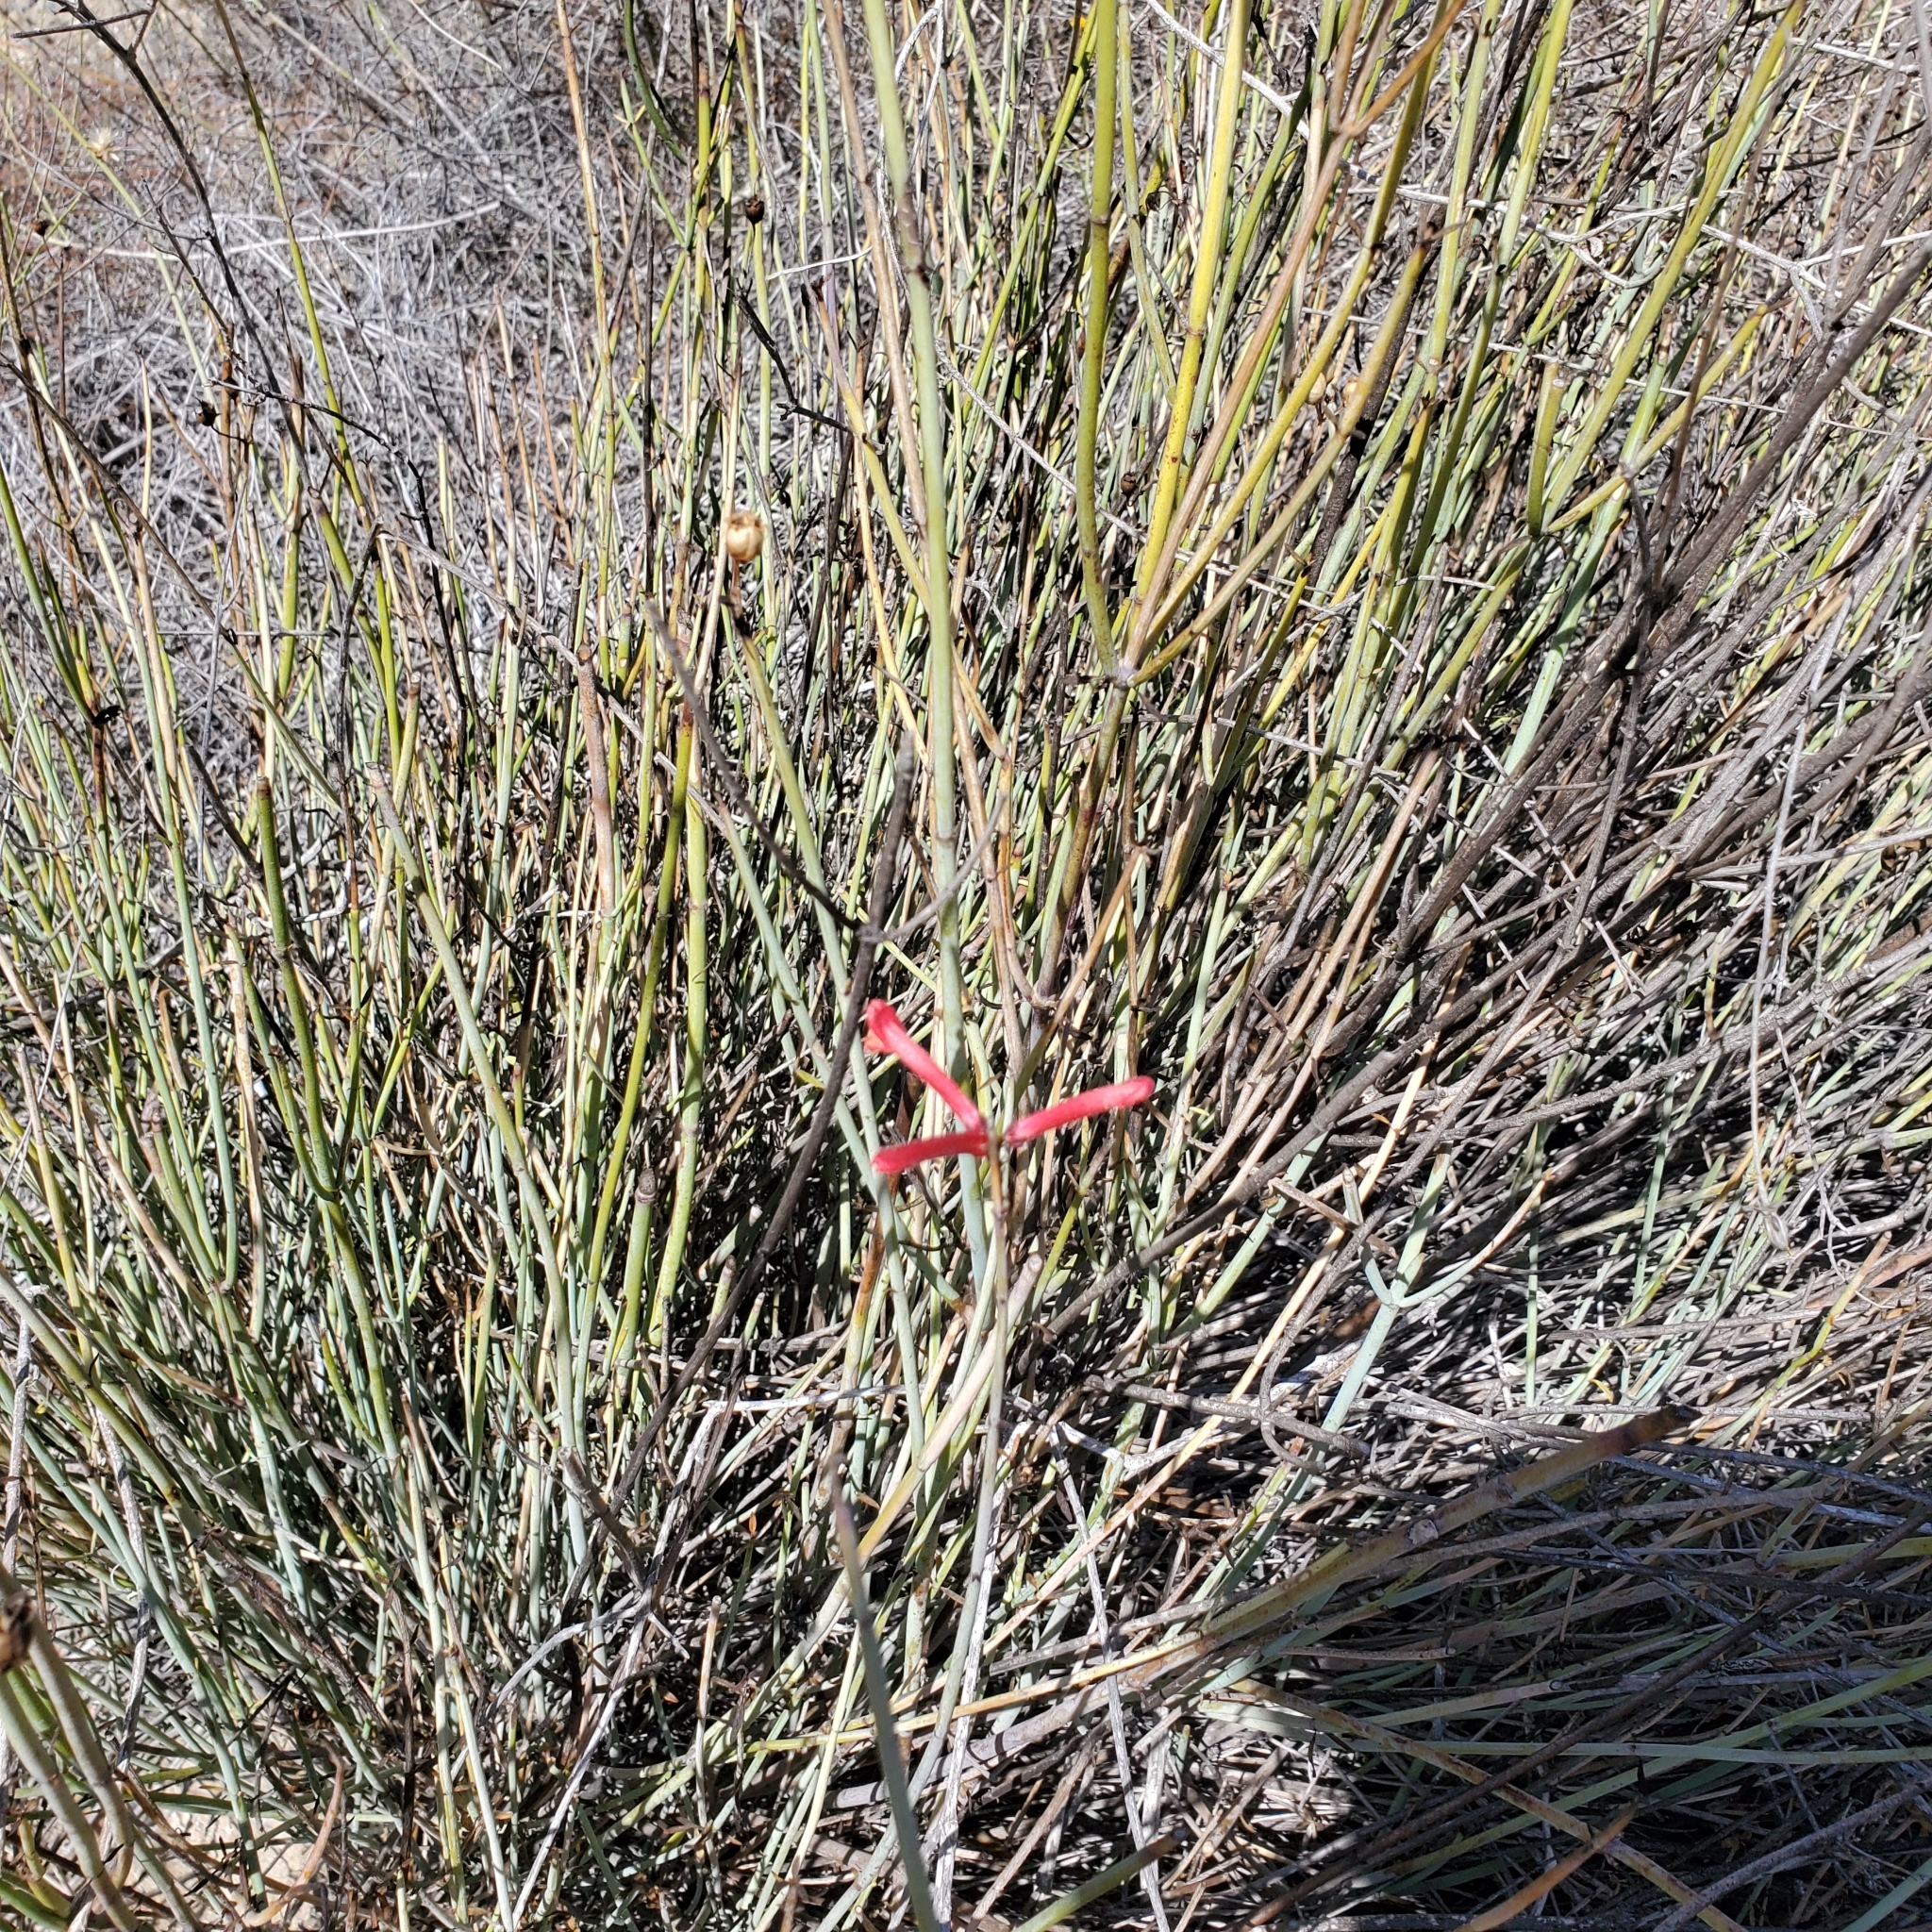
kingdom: Plantae
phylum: Tracheophyta
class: Magnoliopsida
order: Lamiales
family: Plantaginaceae
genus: Gambelia
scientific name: Gambelia juncea
